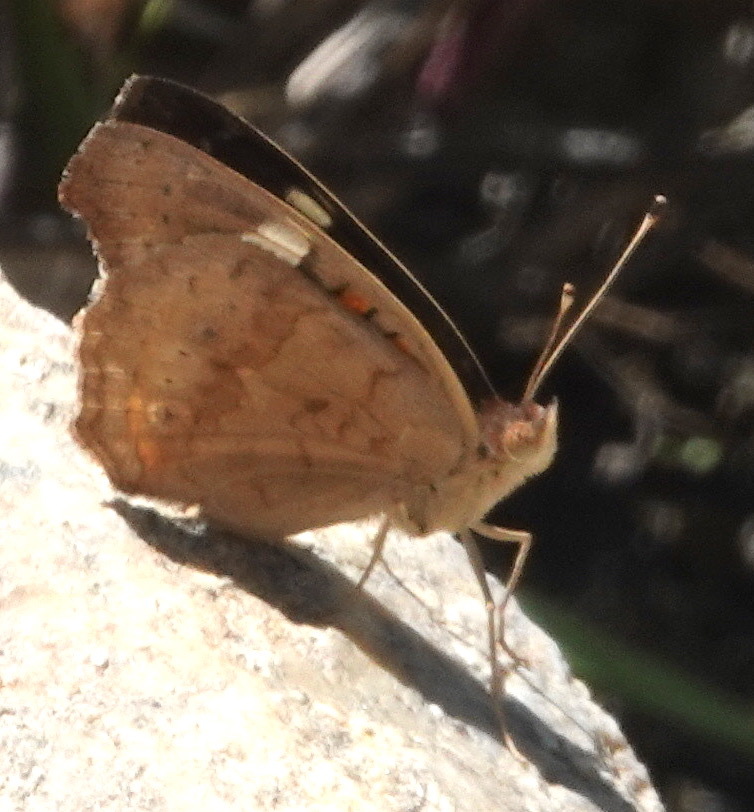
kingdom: Animalia
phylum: Arthropoda
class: Insecta
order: Lepidoptera
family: Nymphalidae
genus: Junonia
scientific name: Junonia grisea
